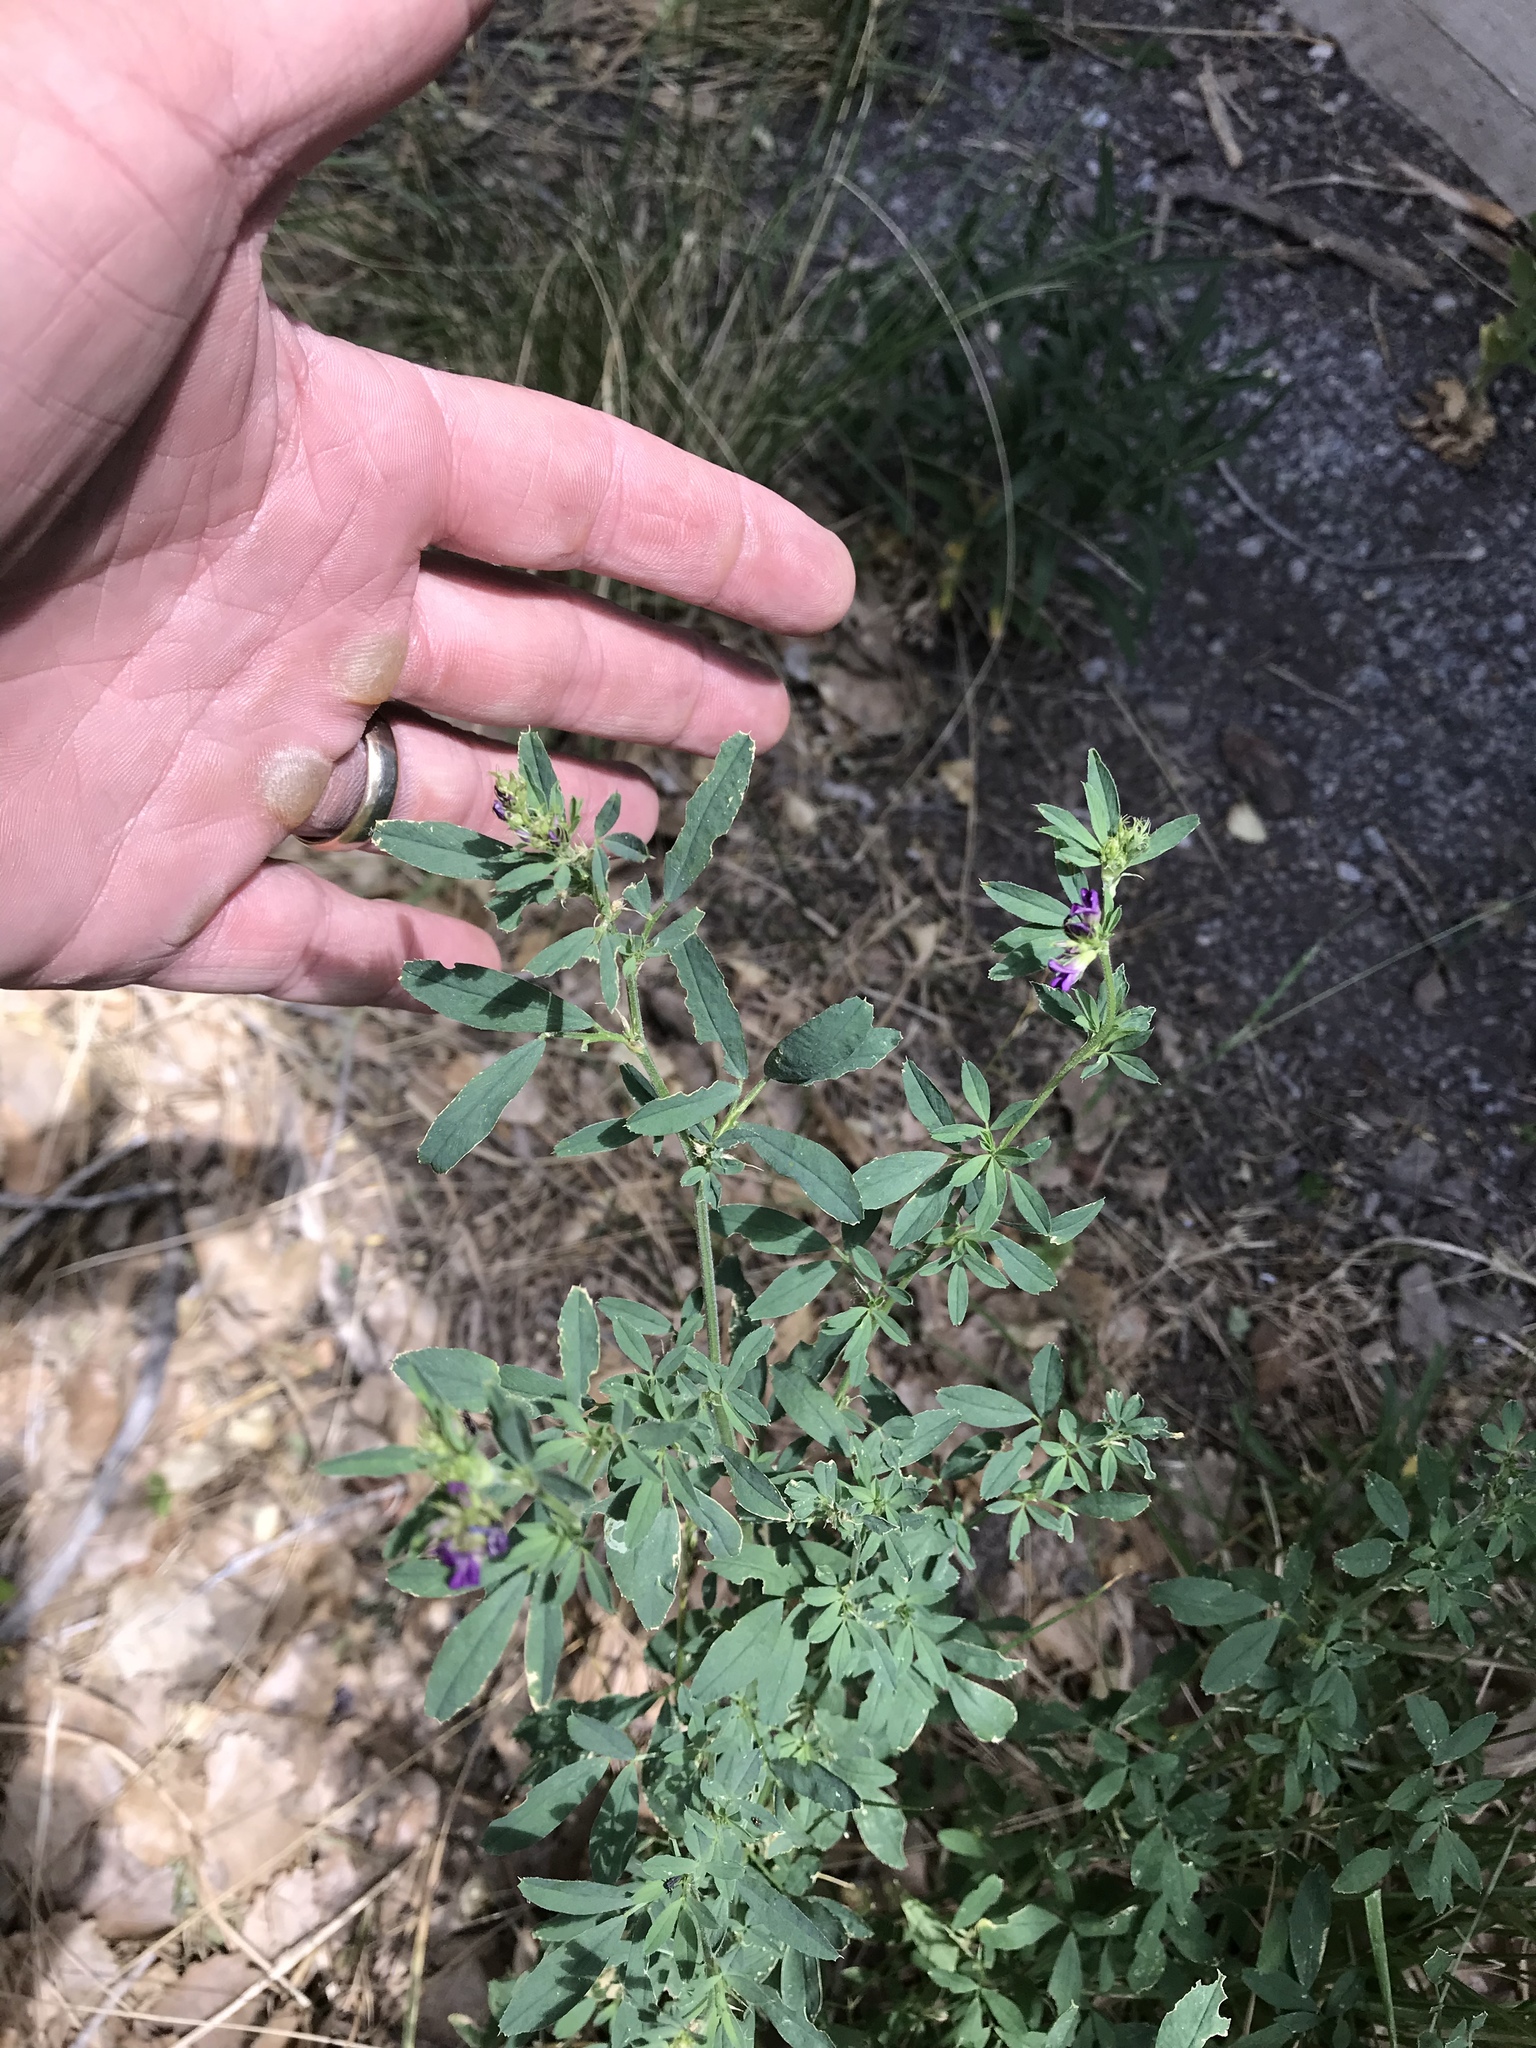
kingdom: Plantae
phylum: Tracheophyta
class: Magnoliopsida
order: Fabales
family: Fabaceae
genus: Medicago
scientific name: Medicago sativa
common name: Alfalfa
